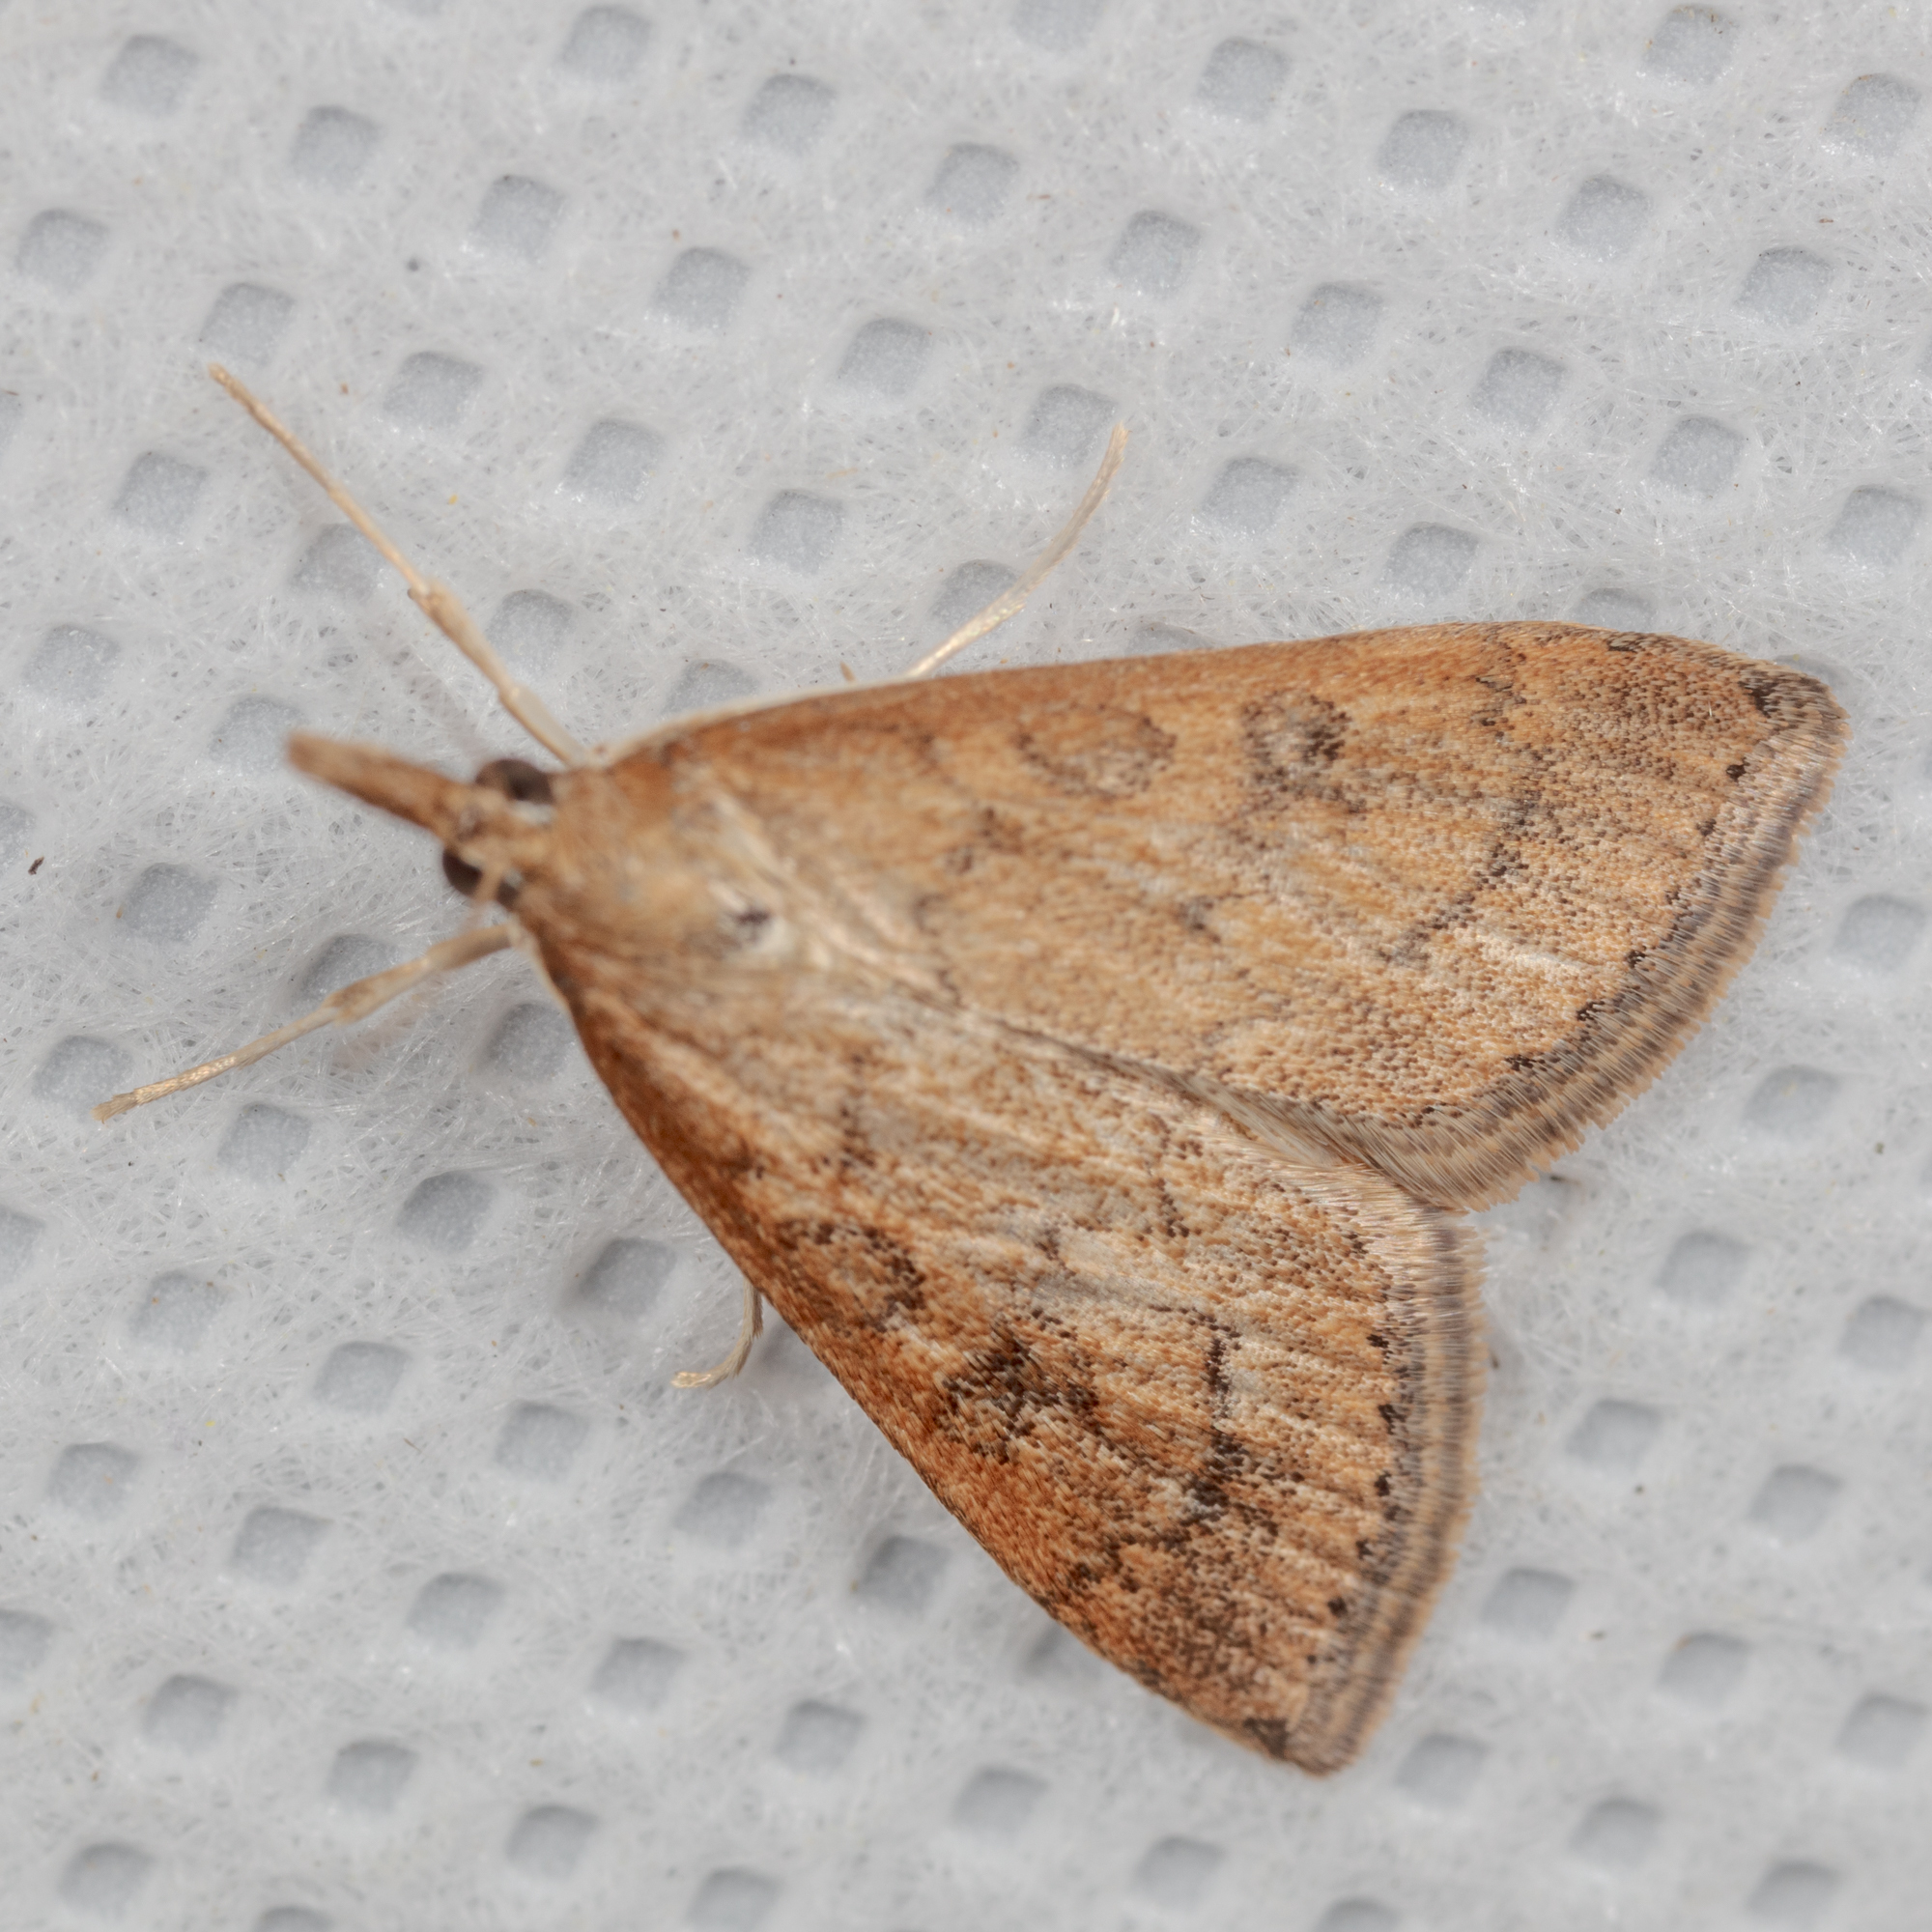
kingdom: Animalia
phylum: Arthropoda
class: Insecta
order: Lepidoptera
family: Crambidae
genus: Udea
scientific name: Udea rubigalis
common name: Celery leaftier moth
